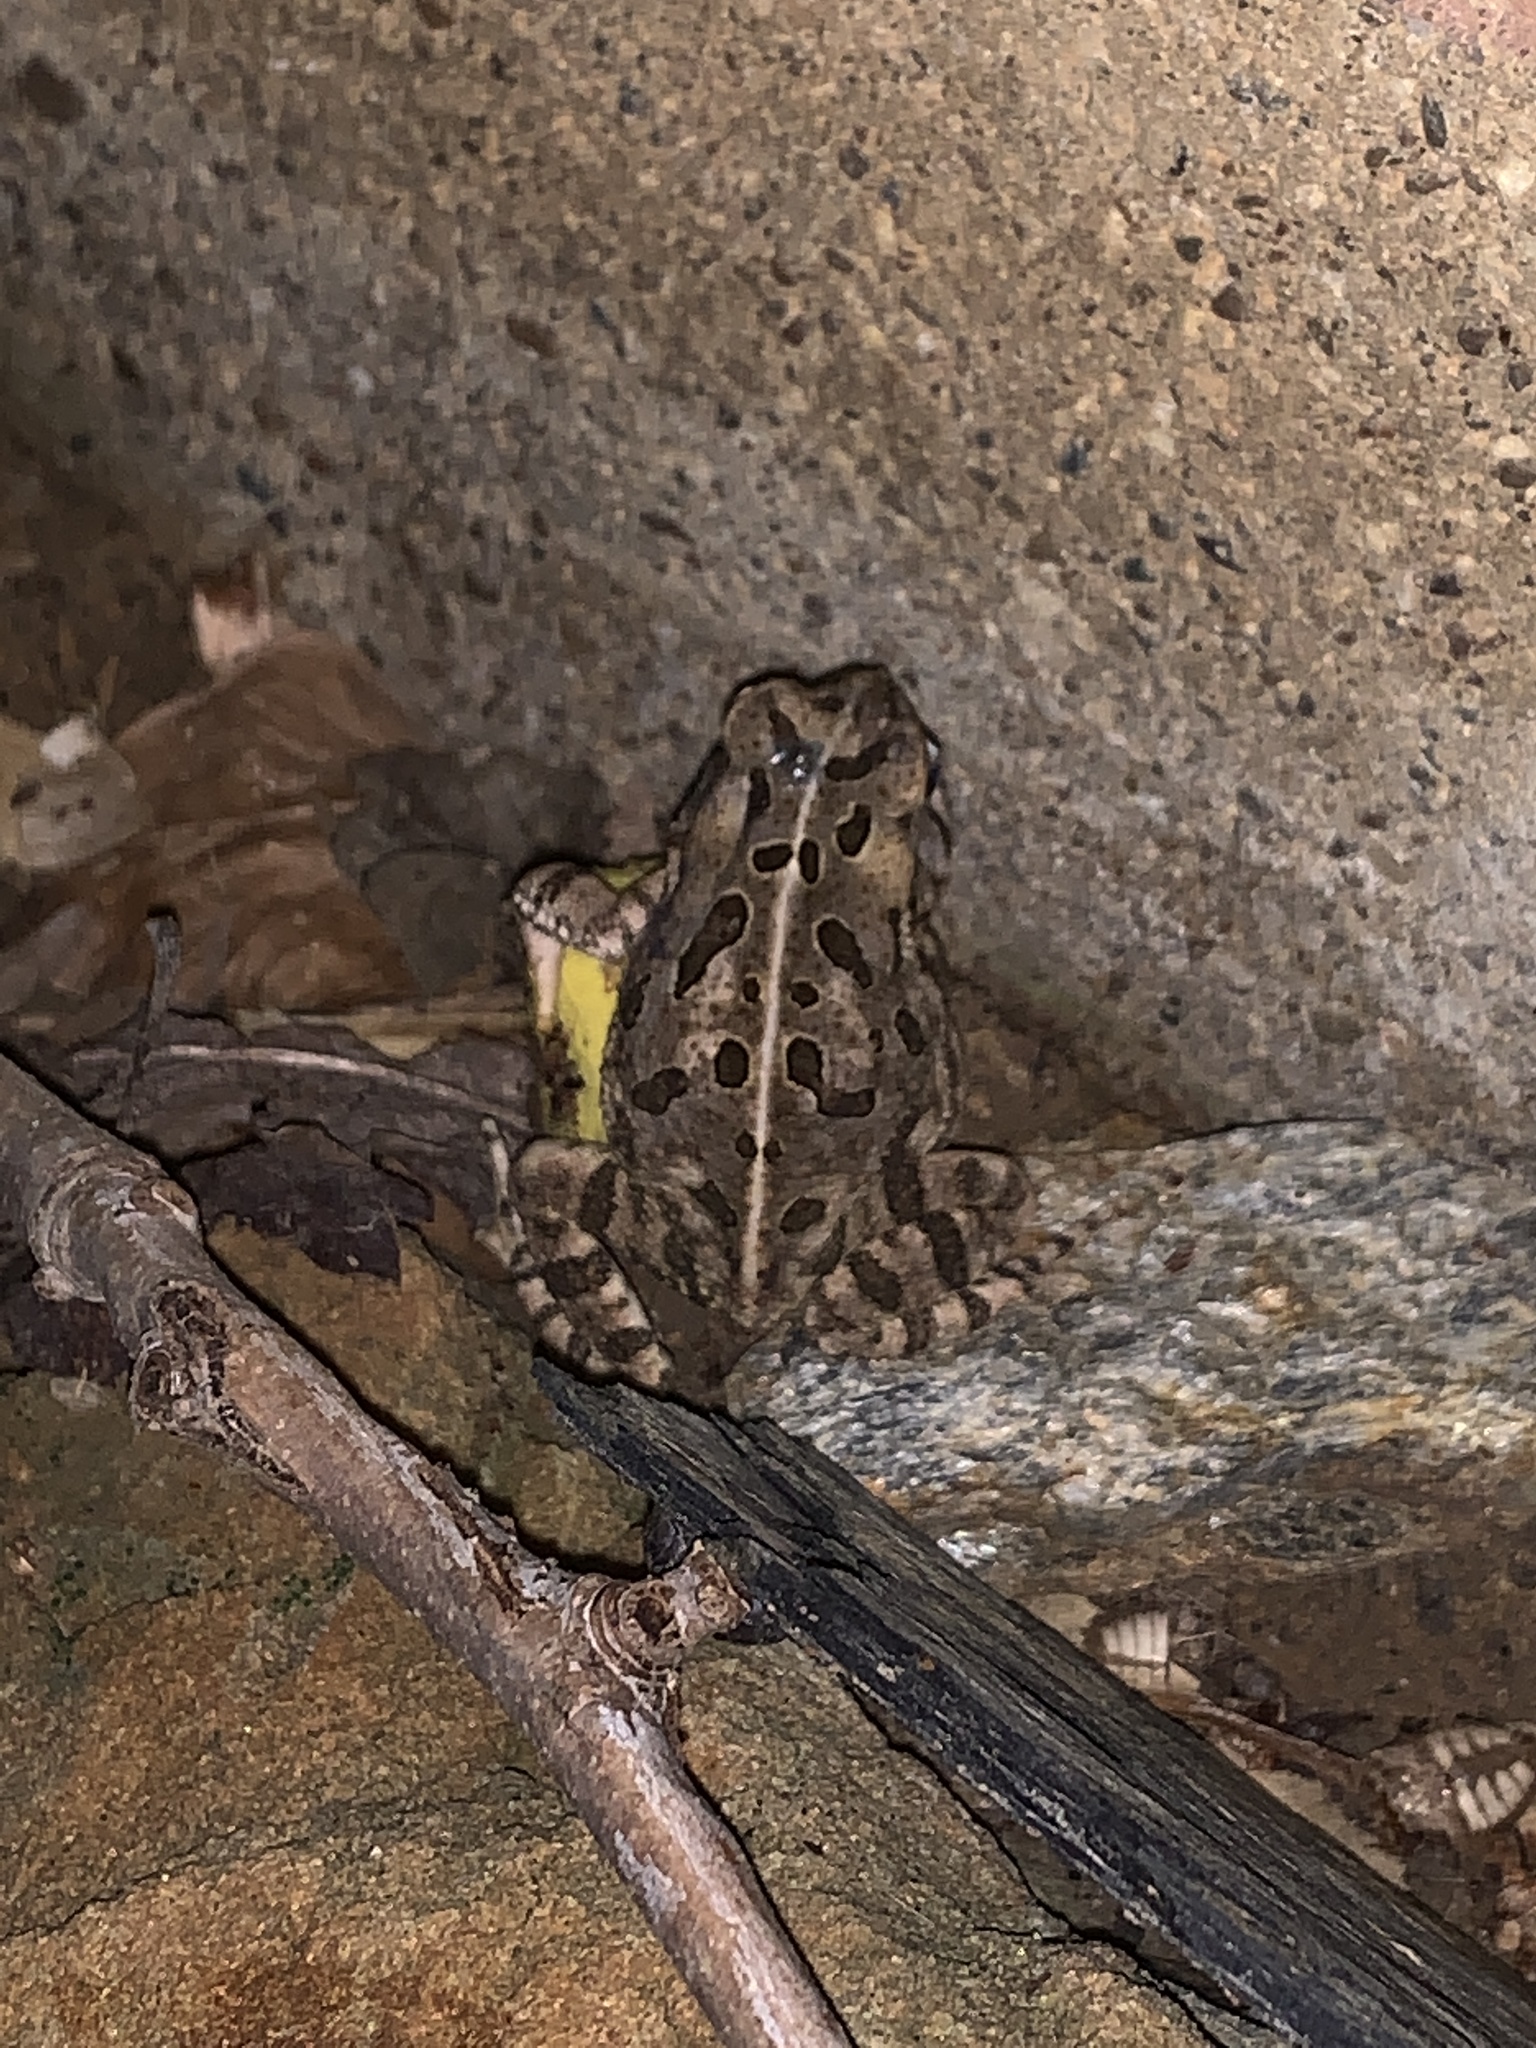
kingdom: Animalia
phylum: Chordata
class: Amphibia
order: Anura
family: Bufonidae
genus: Anaxyrus
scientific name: Anaxyrus fowleri
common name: Fowler's toad
